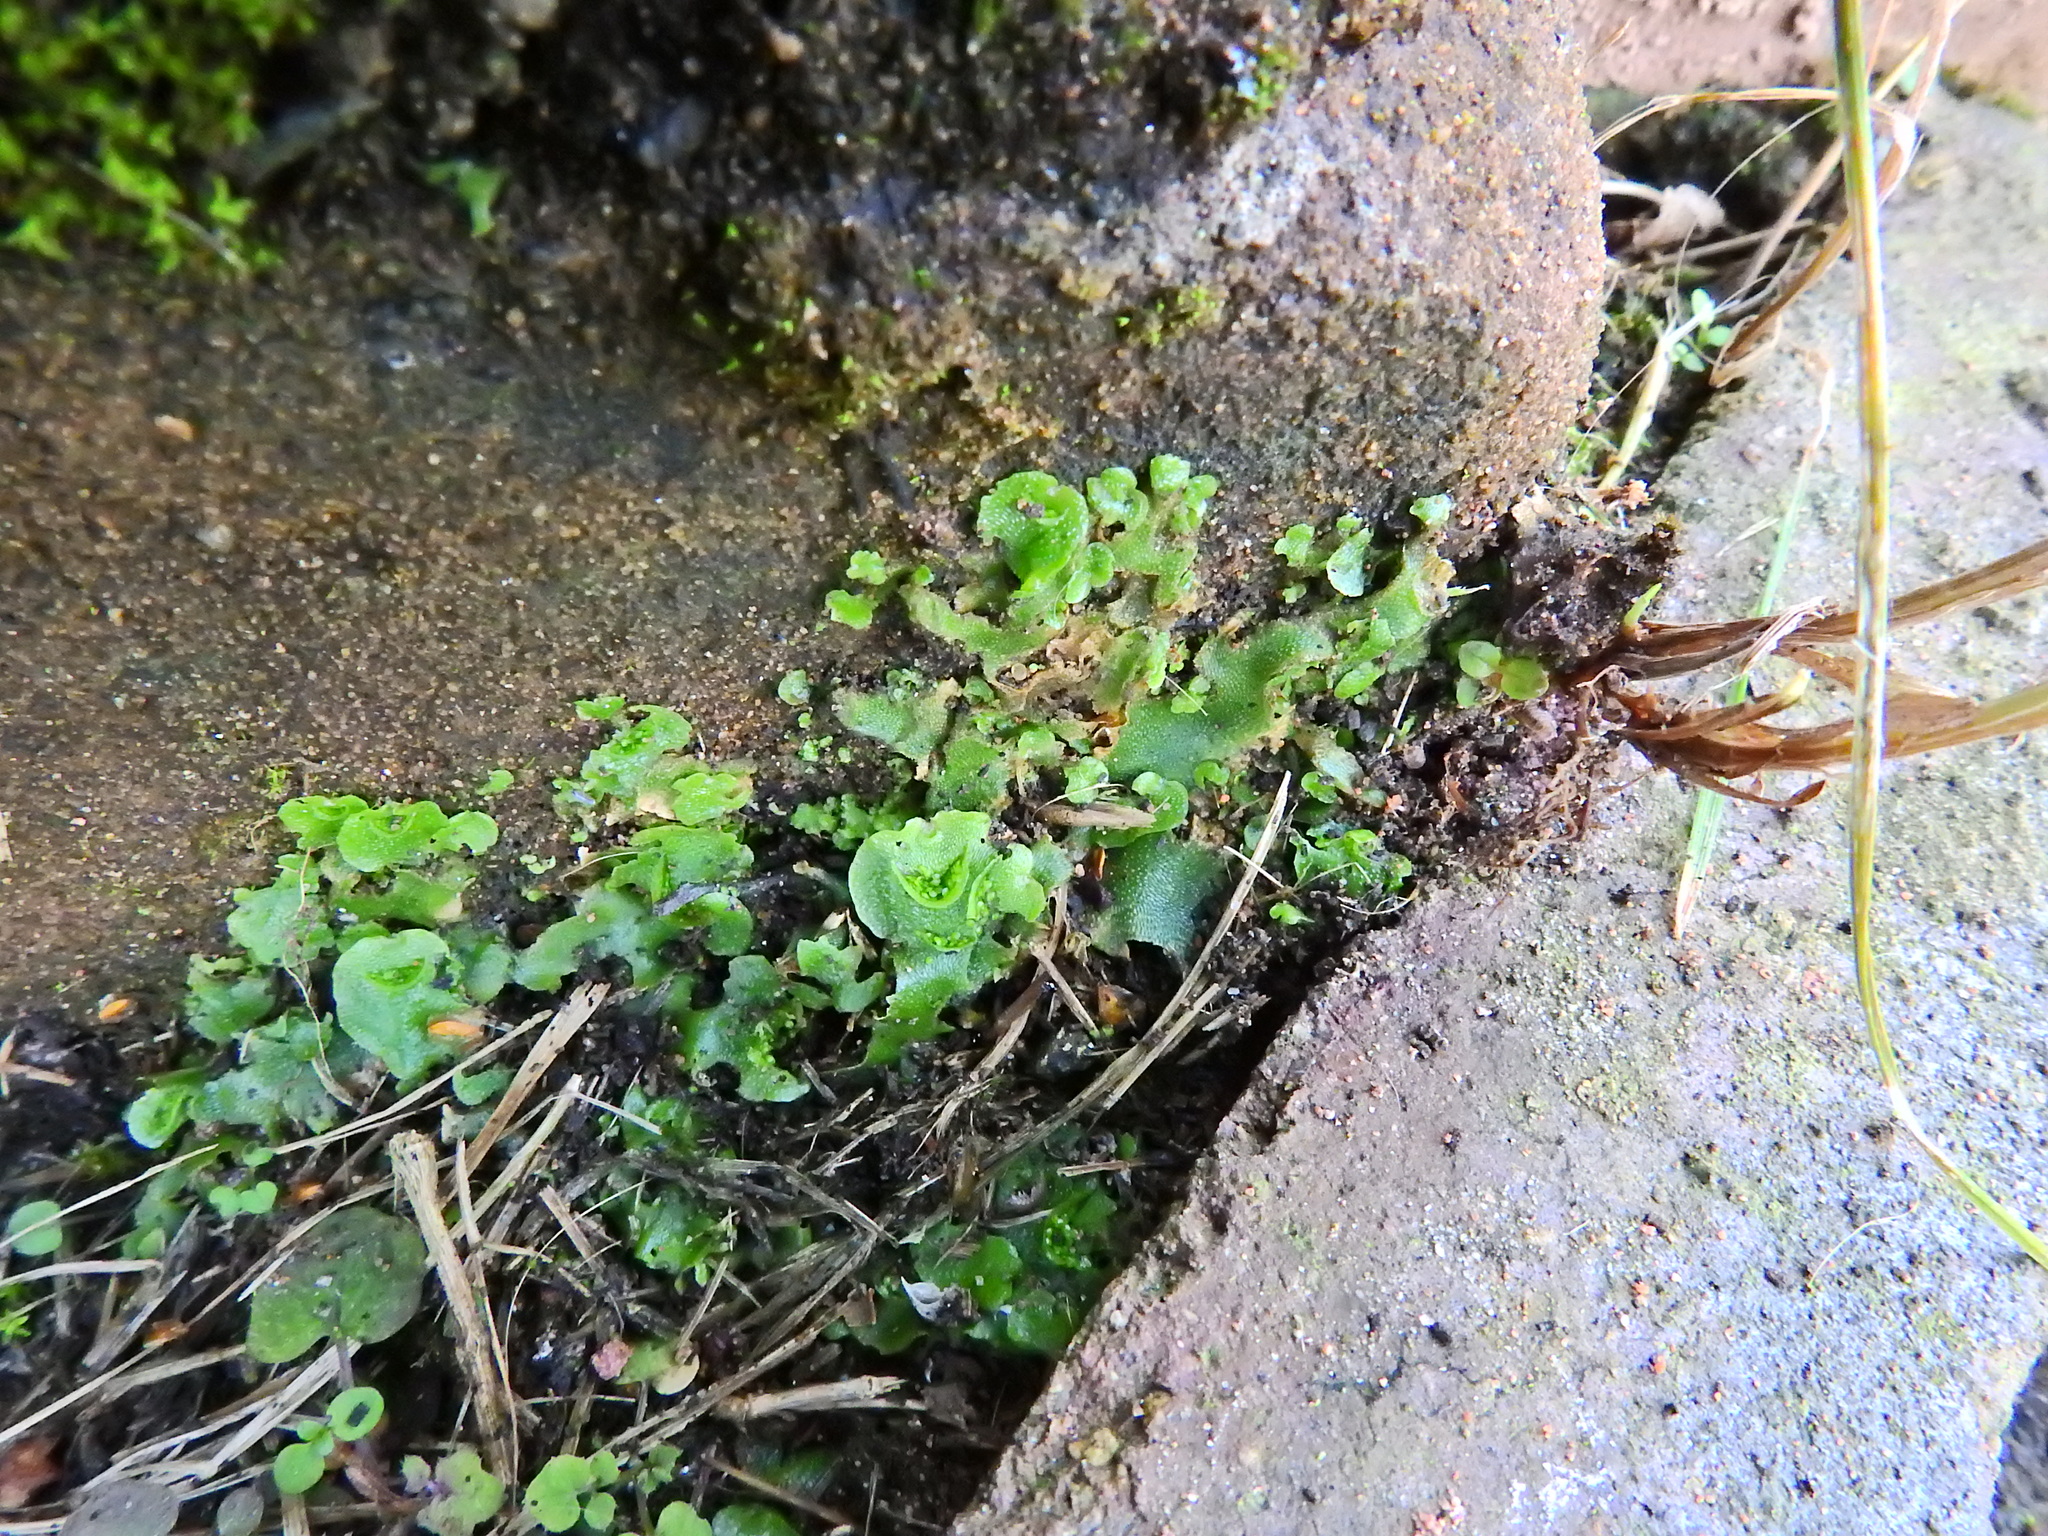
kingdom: Plantae
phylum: Marchantiophyta
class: Marchantiopsida
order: Lunulariales
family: Lunulariaceae
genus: Lunularia
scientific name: Lunularia cruciata
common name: Crescent-cup liverwort
